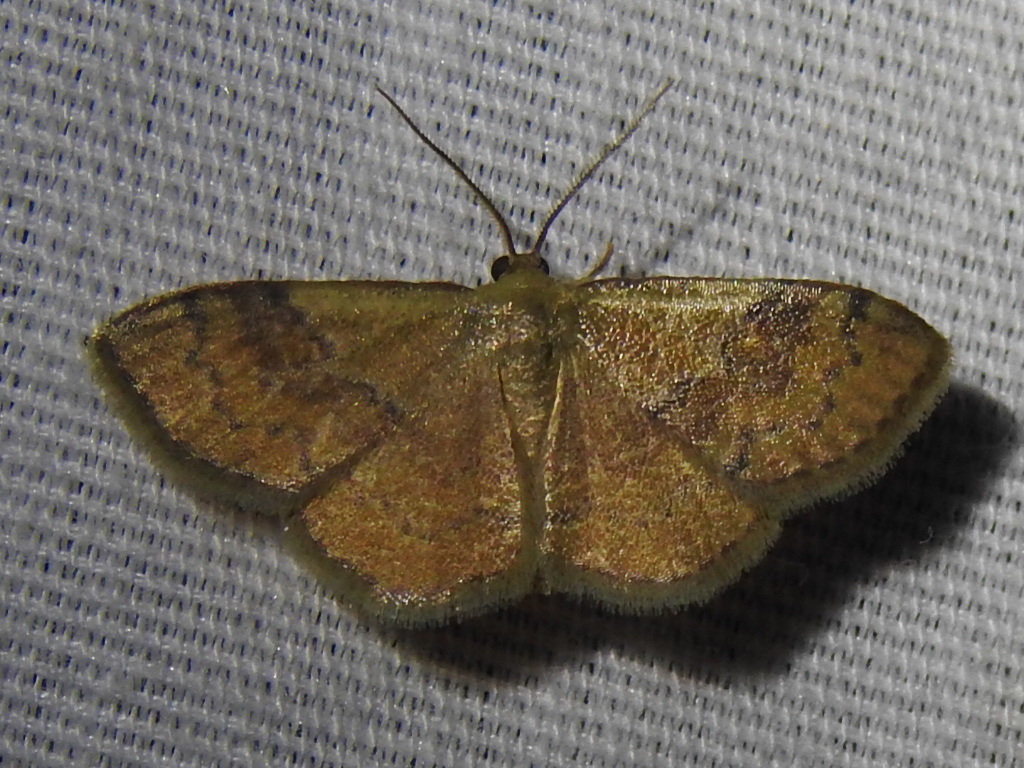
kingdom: Animalia
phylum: Arthropoda
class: Insecta
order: Lepidoptera
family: Geometridae
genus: Leptostales
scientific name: Leptostales ferruminaria
